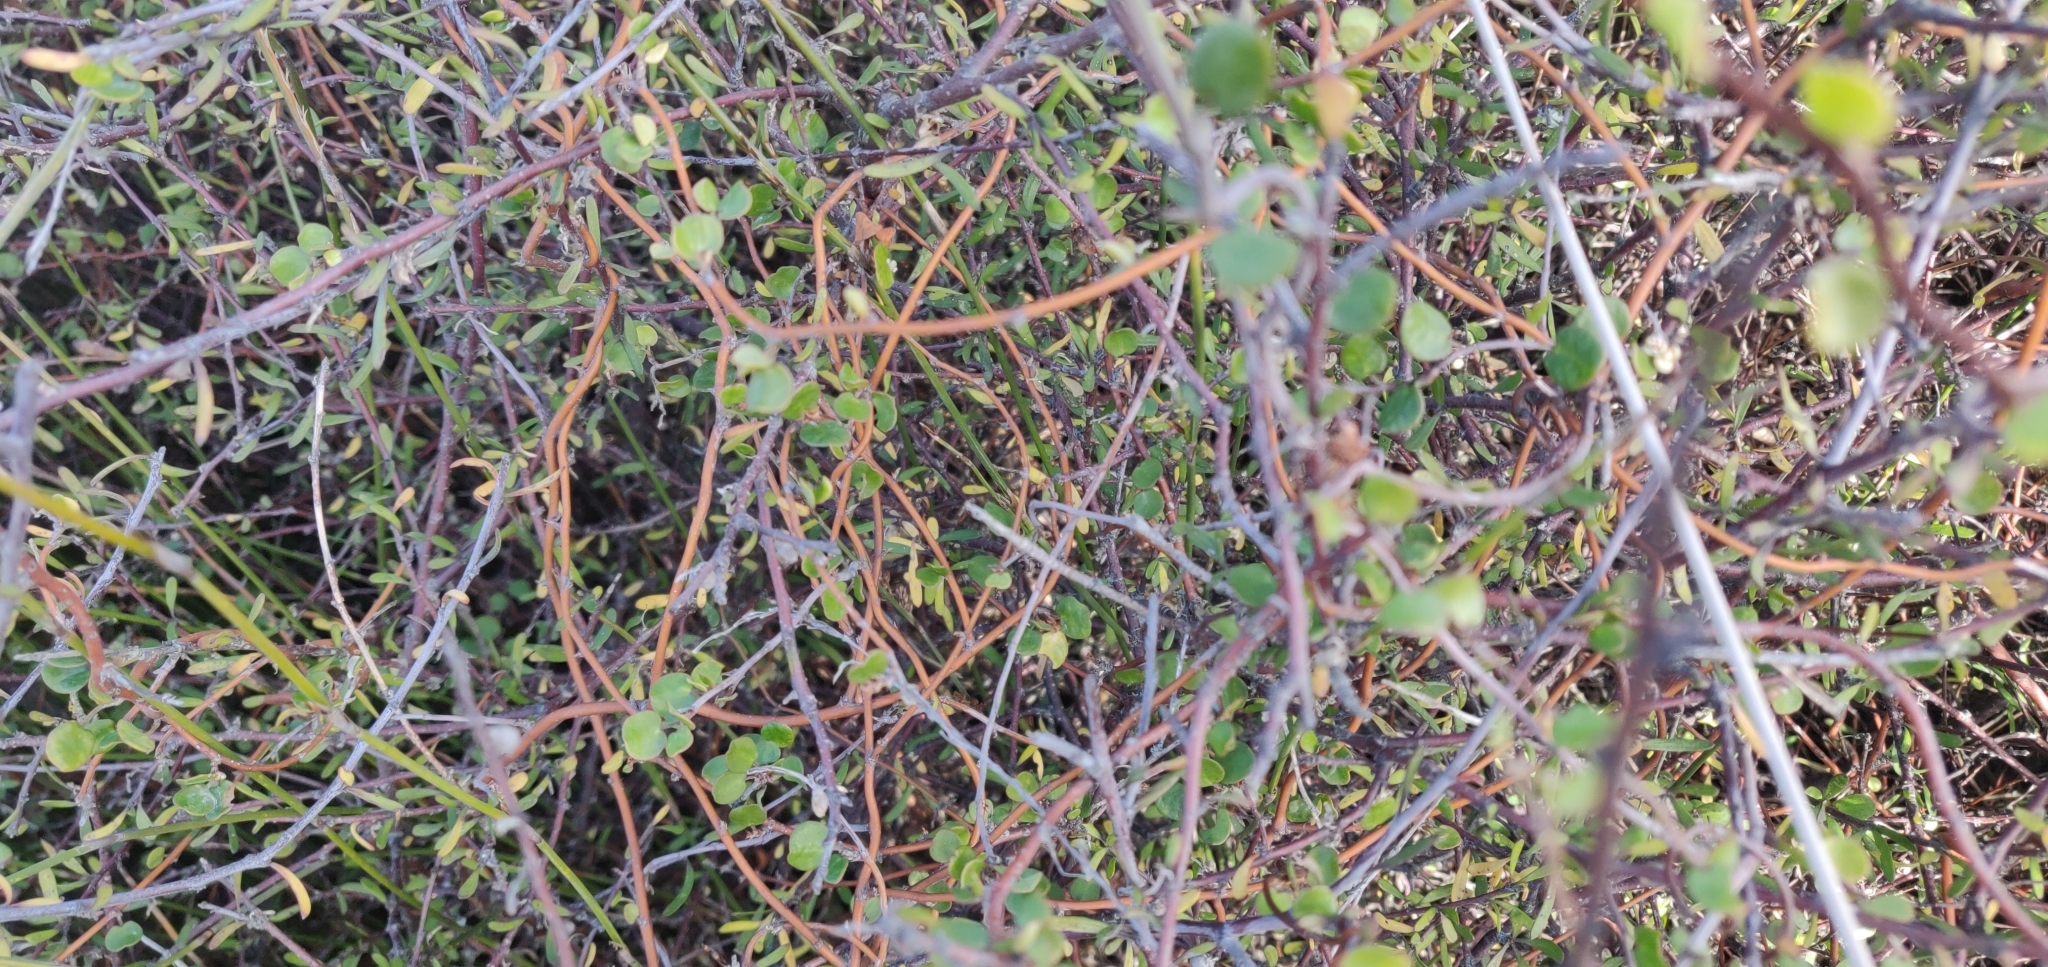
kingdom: Plantae
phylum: Tracheophyta
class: Magnoliopsida
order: Caryophyllales
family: Polygonaceae
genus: Muehlenbeckia
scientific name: Muehlenbeckia complexa
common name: Wireplant
